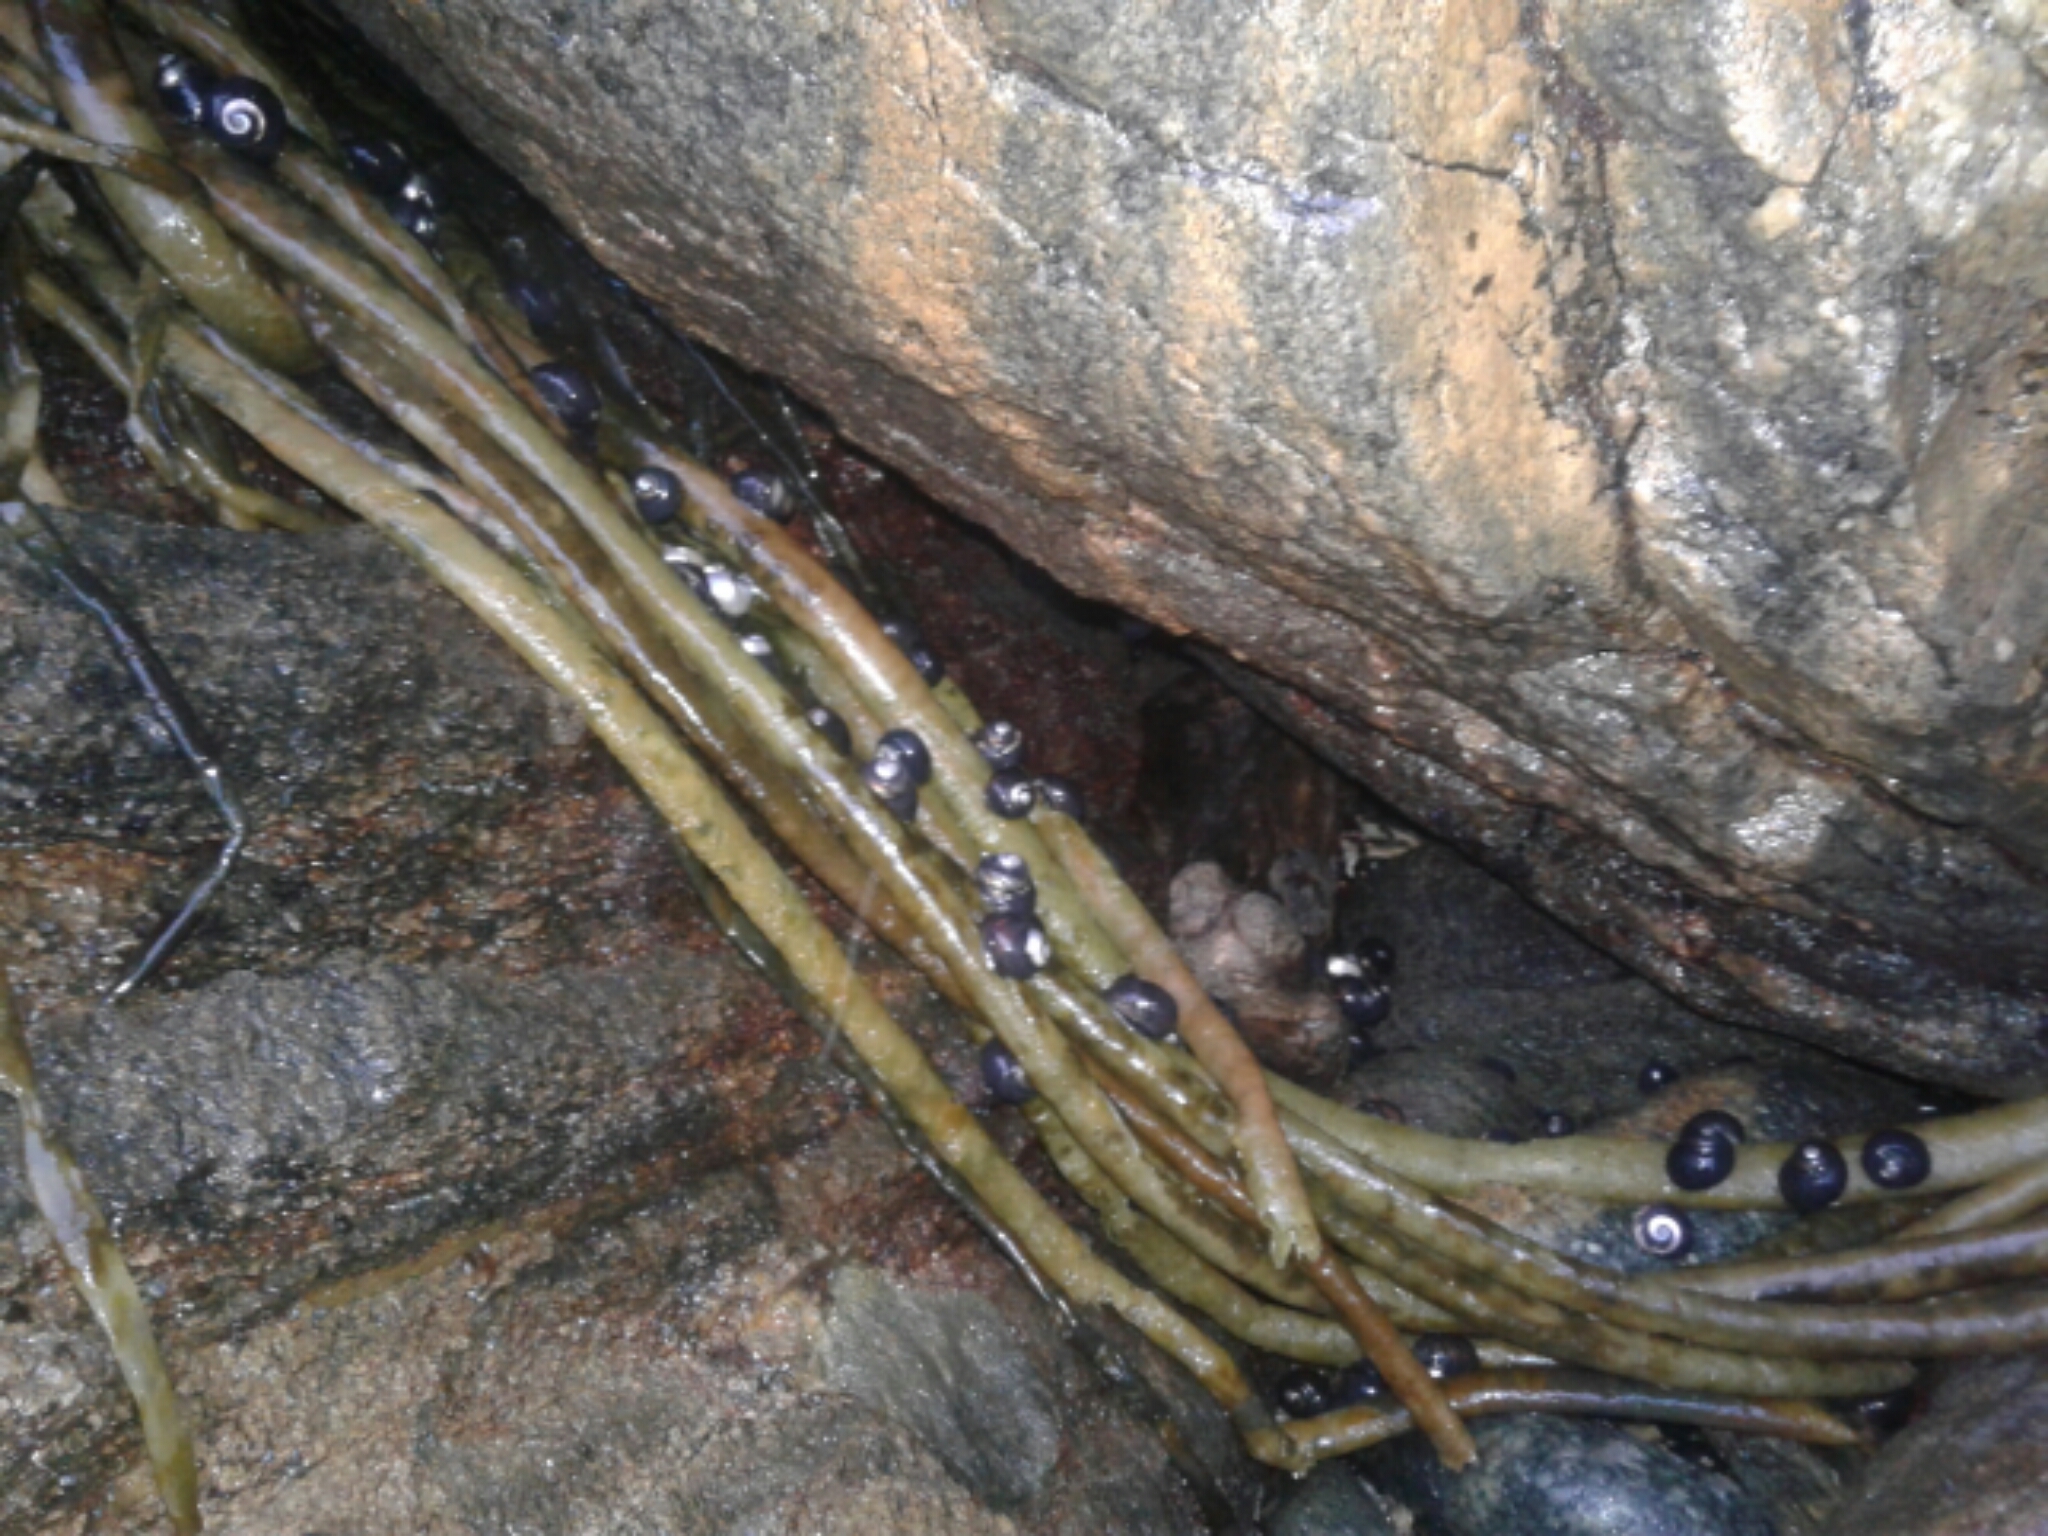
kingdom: Animalia
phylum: Mollusca
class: Gastropoda
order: Trochida
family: Trochidae
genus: Diloma
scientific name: Diloma nigerrimum
